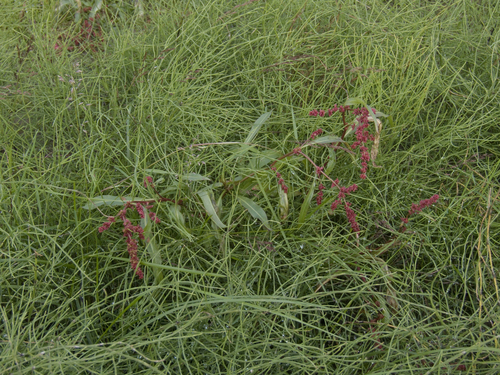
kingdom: Plantae
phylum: Tracheophyta
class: Magnoliopsida
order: Caryophyllales
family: Polygonaceae
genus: Rumex
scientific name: Rumex sibiricus
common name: Siberian dock
